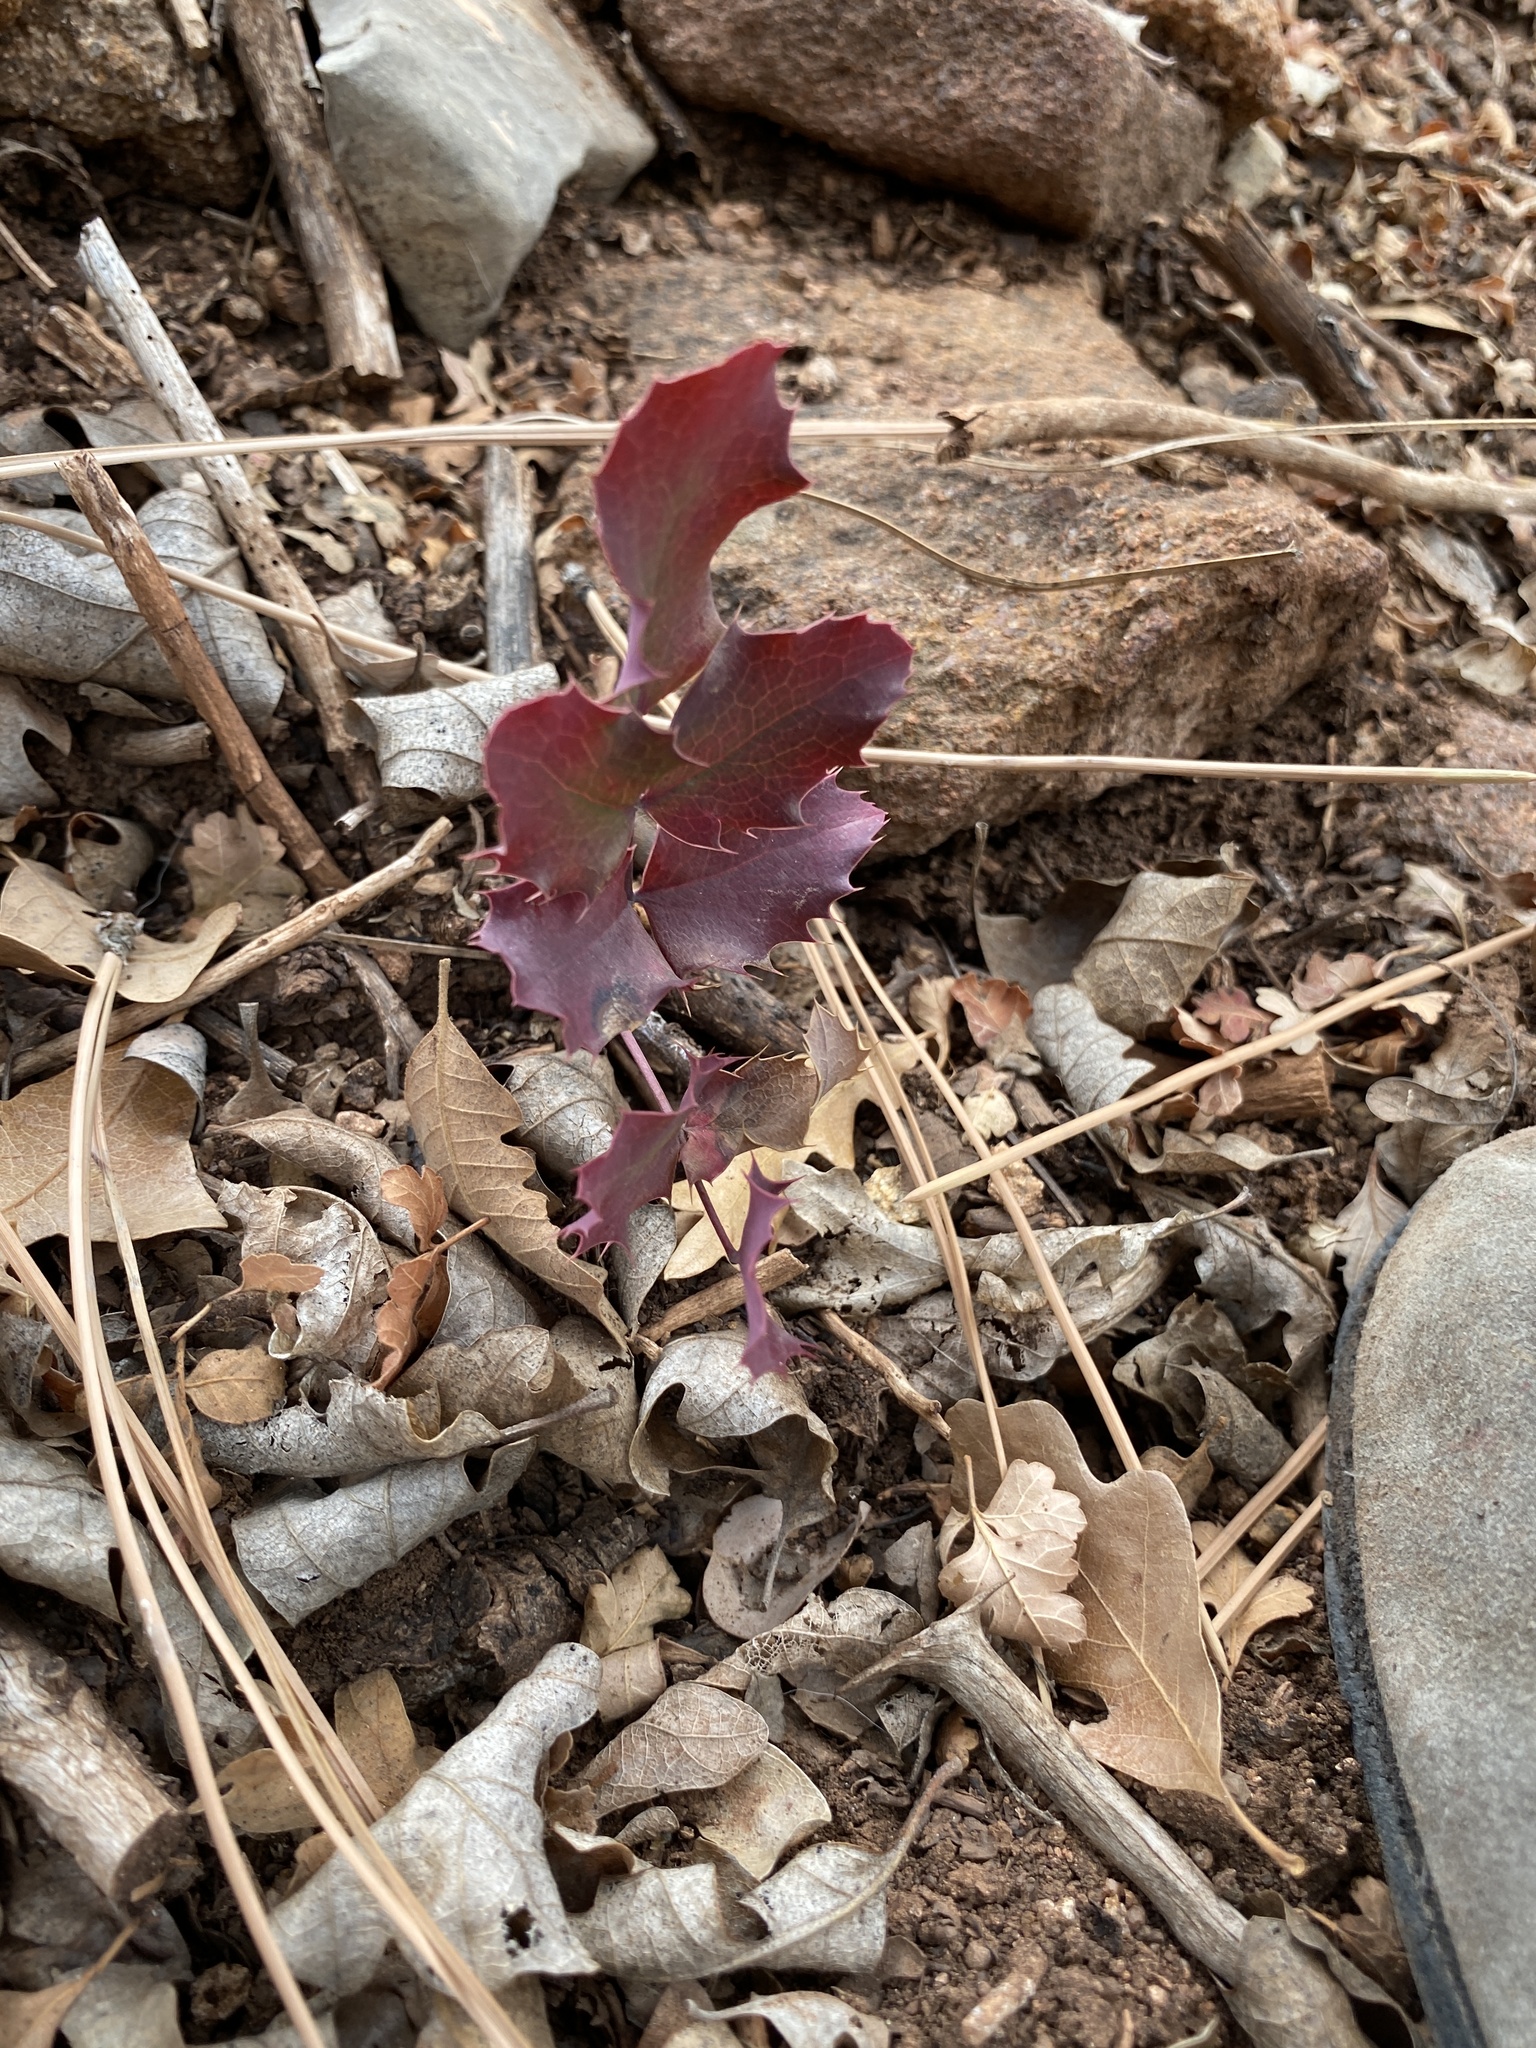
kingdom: Plantae
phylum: Tracheophyta
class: Magnoliopsida
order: Ranunculales
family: Berberidaceae
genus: Mahonia
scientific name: Mahonia repens
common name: Creeping oregon-grape
